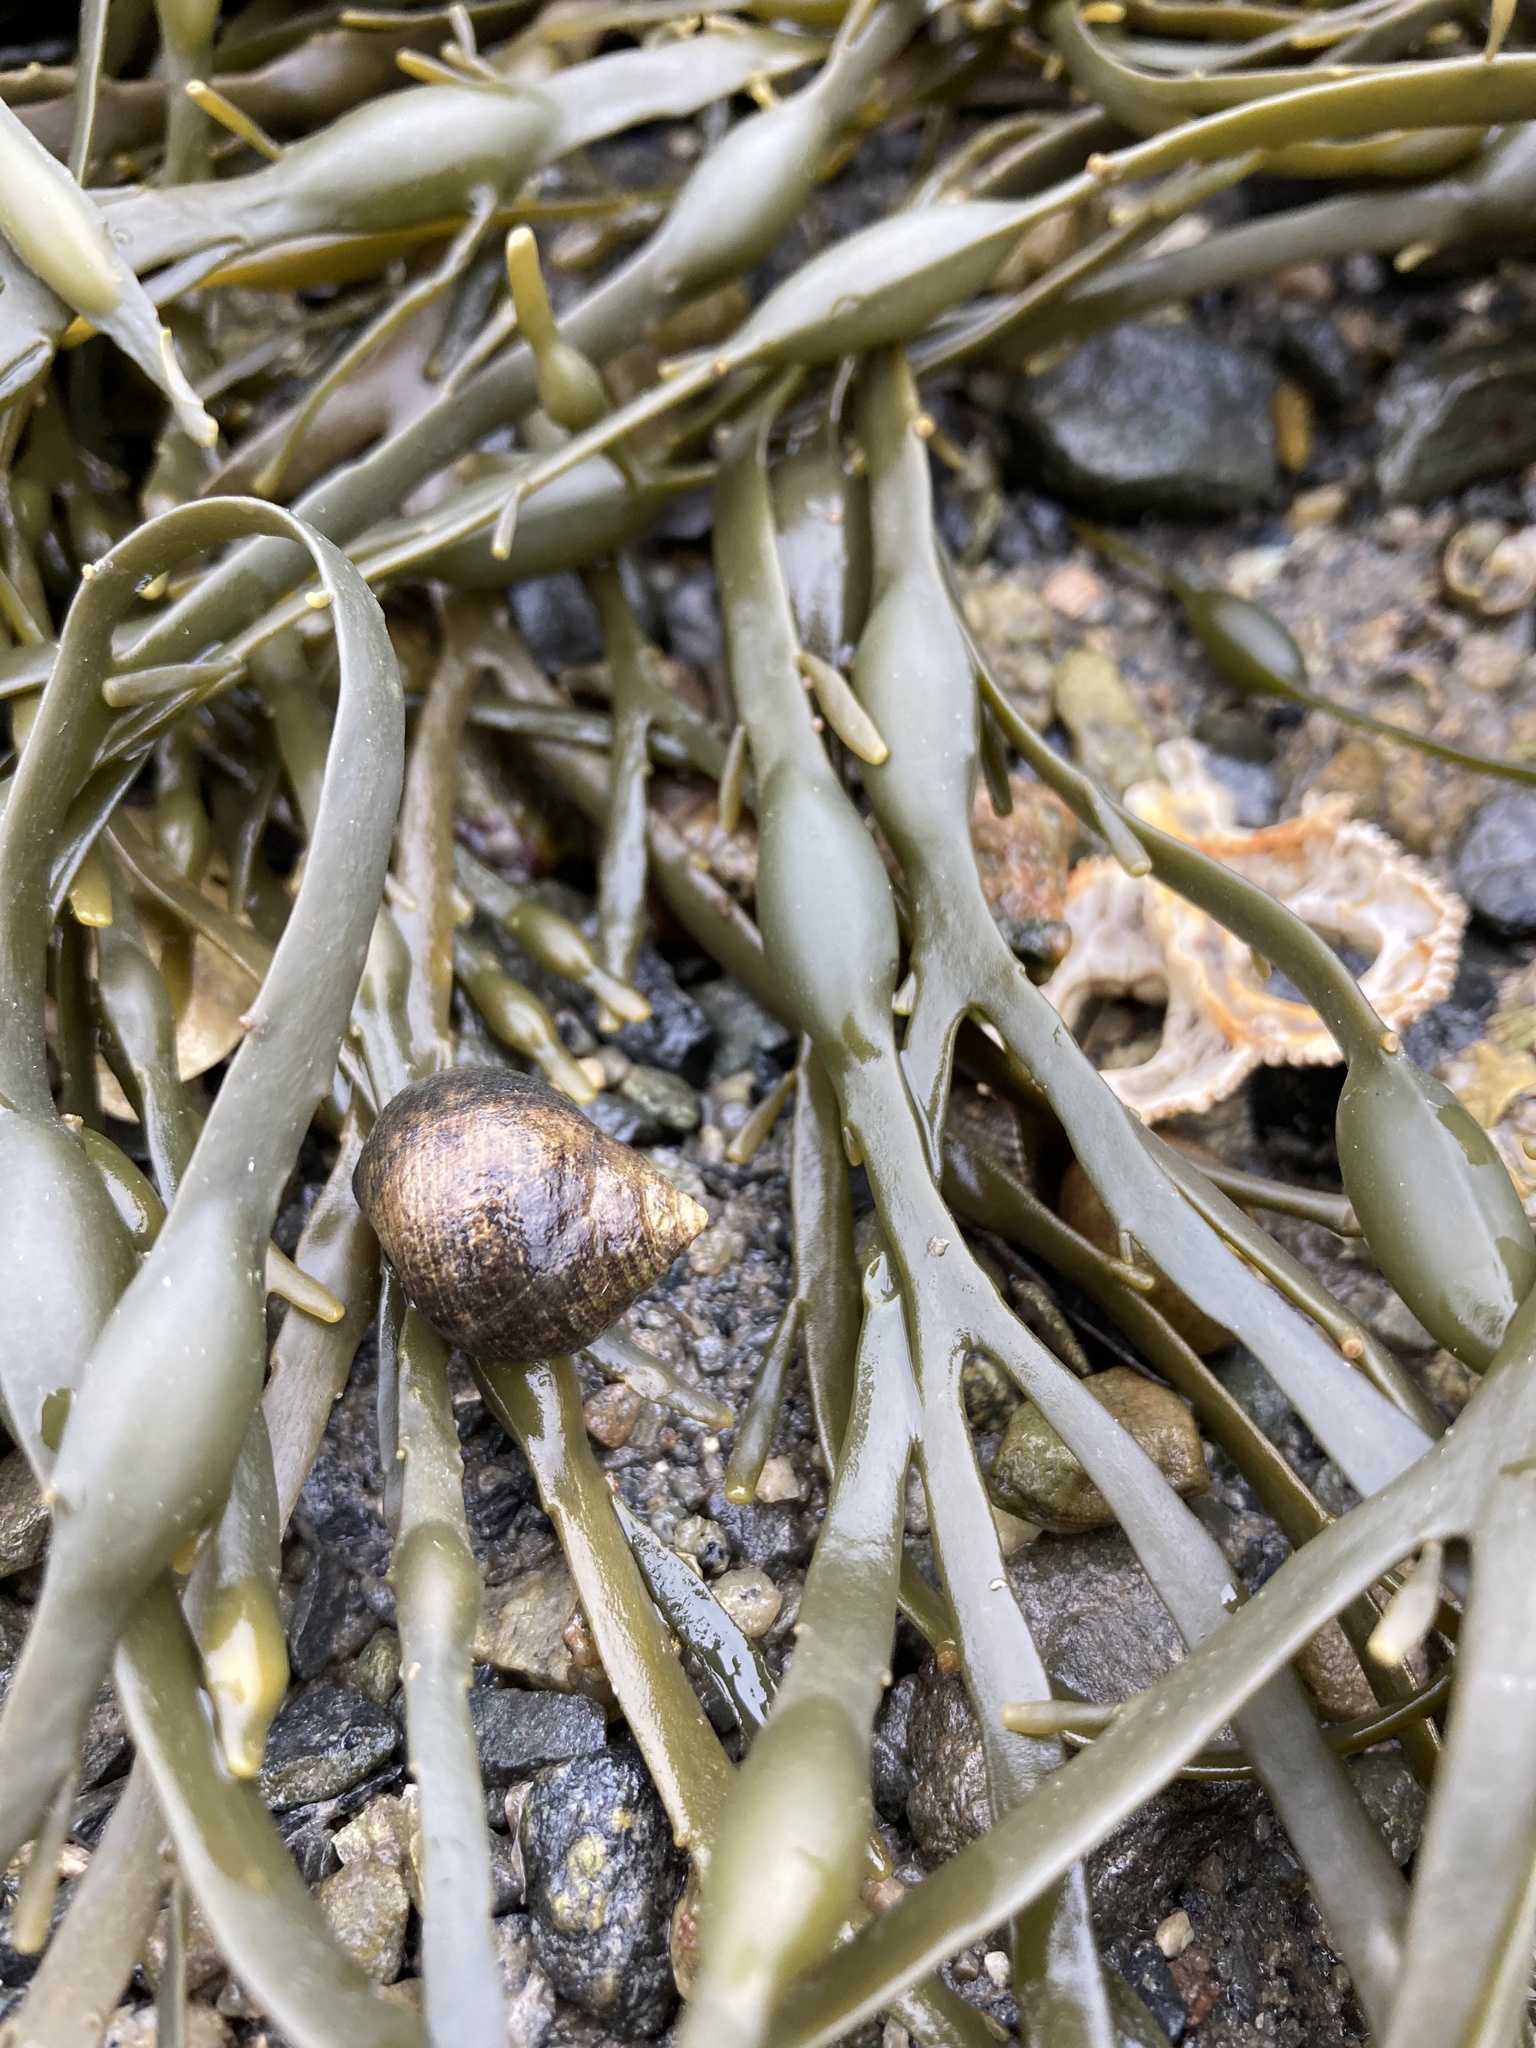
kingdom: Animalia
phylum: Mollusca
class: Gastropoda
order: Littorinimorpha
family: Littorinidae
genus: Littorina
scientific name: Littorina littorea
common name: Common periwinkle
